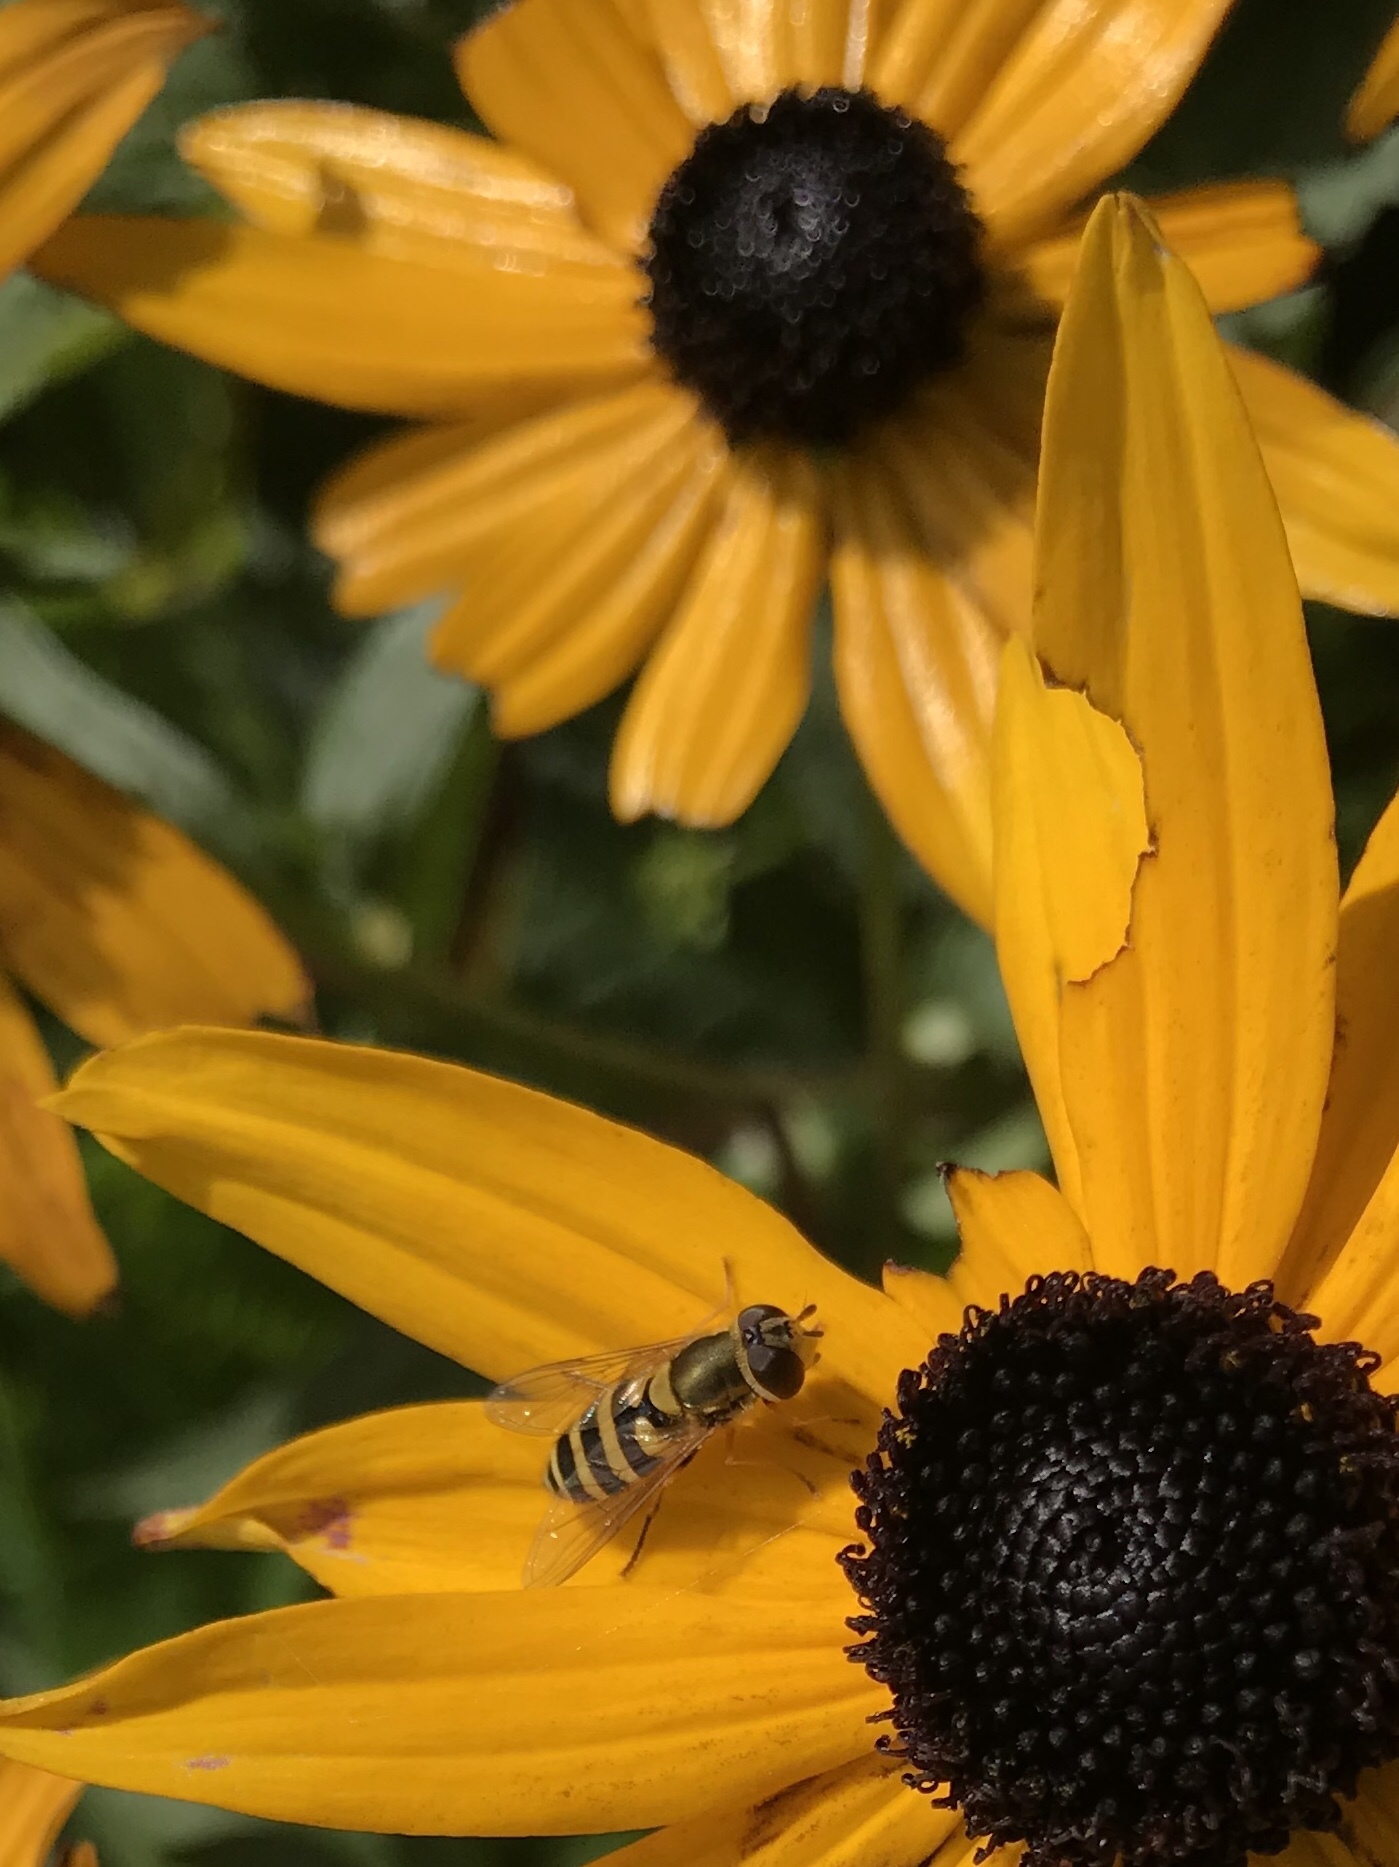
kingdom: Animalia
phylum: Arthropoda
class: Insecta
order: Diptera
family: Syrphidae
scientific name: Syrphidae
